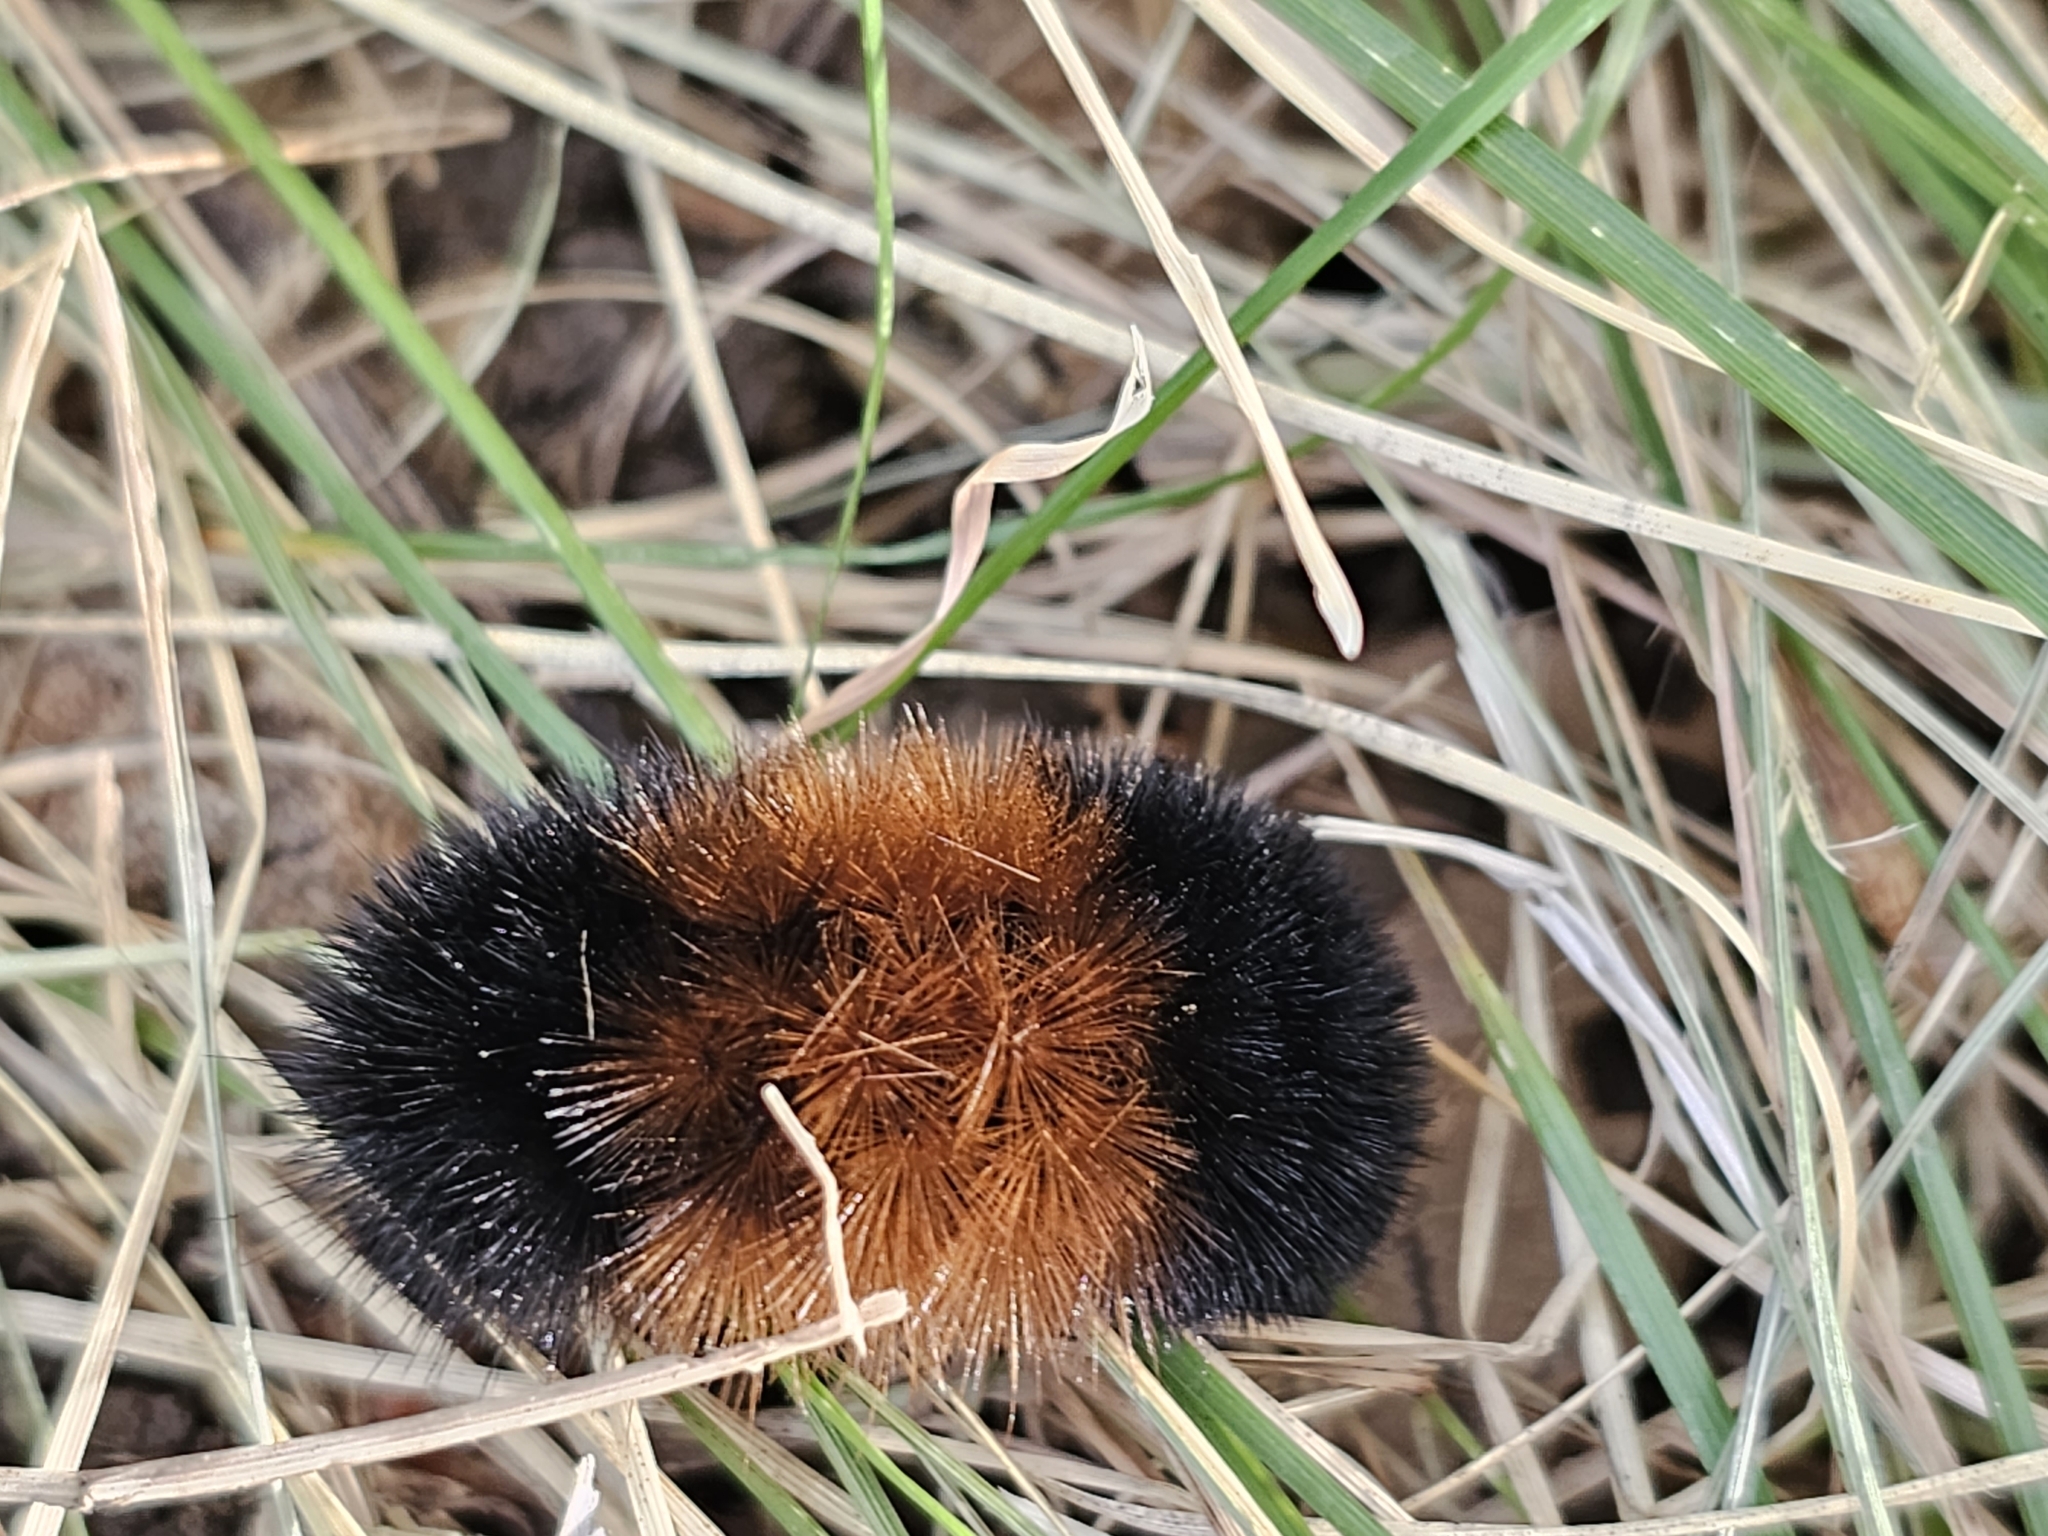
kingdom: Animalia
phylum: Arthropoda
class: Insecta
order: Lepidoptera
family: Erebidae
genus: Pyrrharctia
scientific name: Pyrrharctia isabella
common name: Isabella tiger moth
